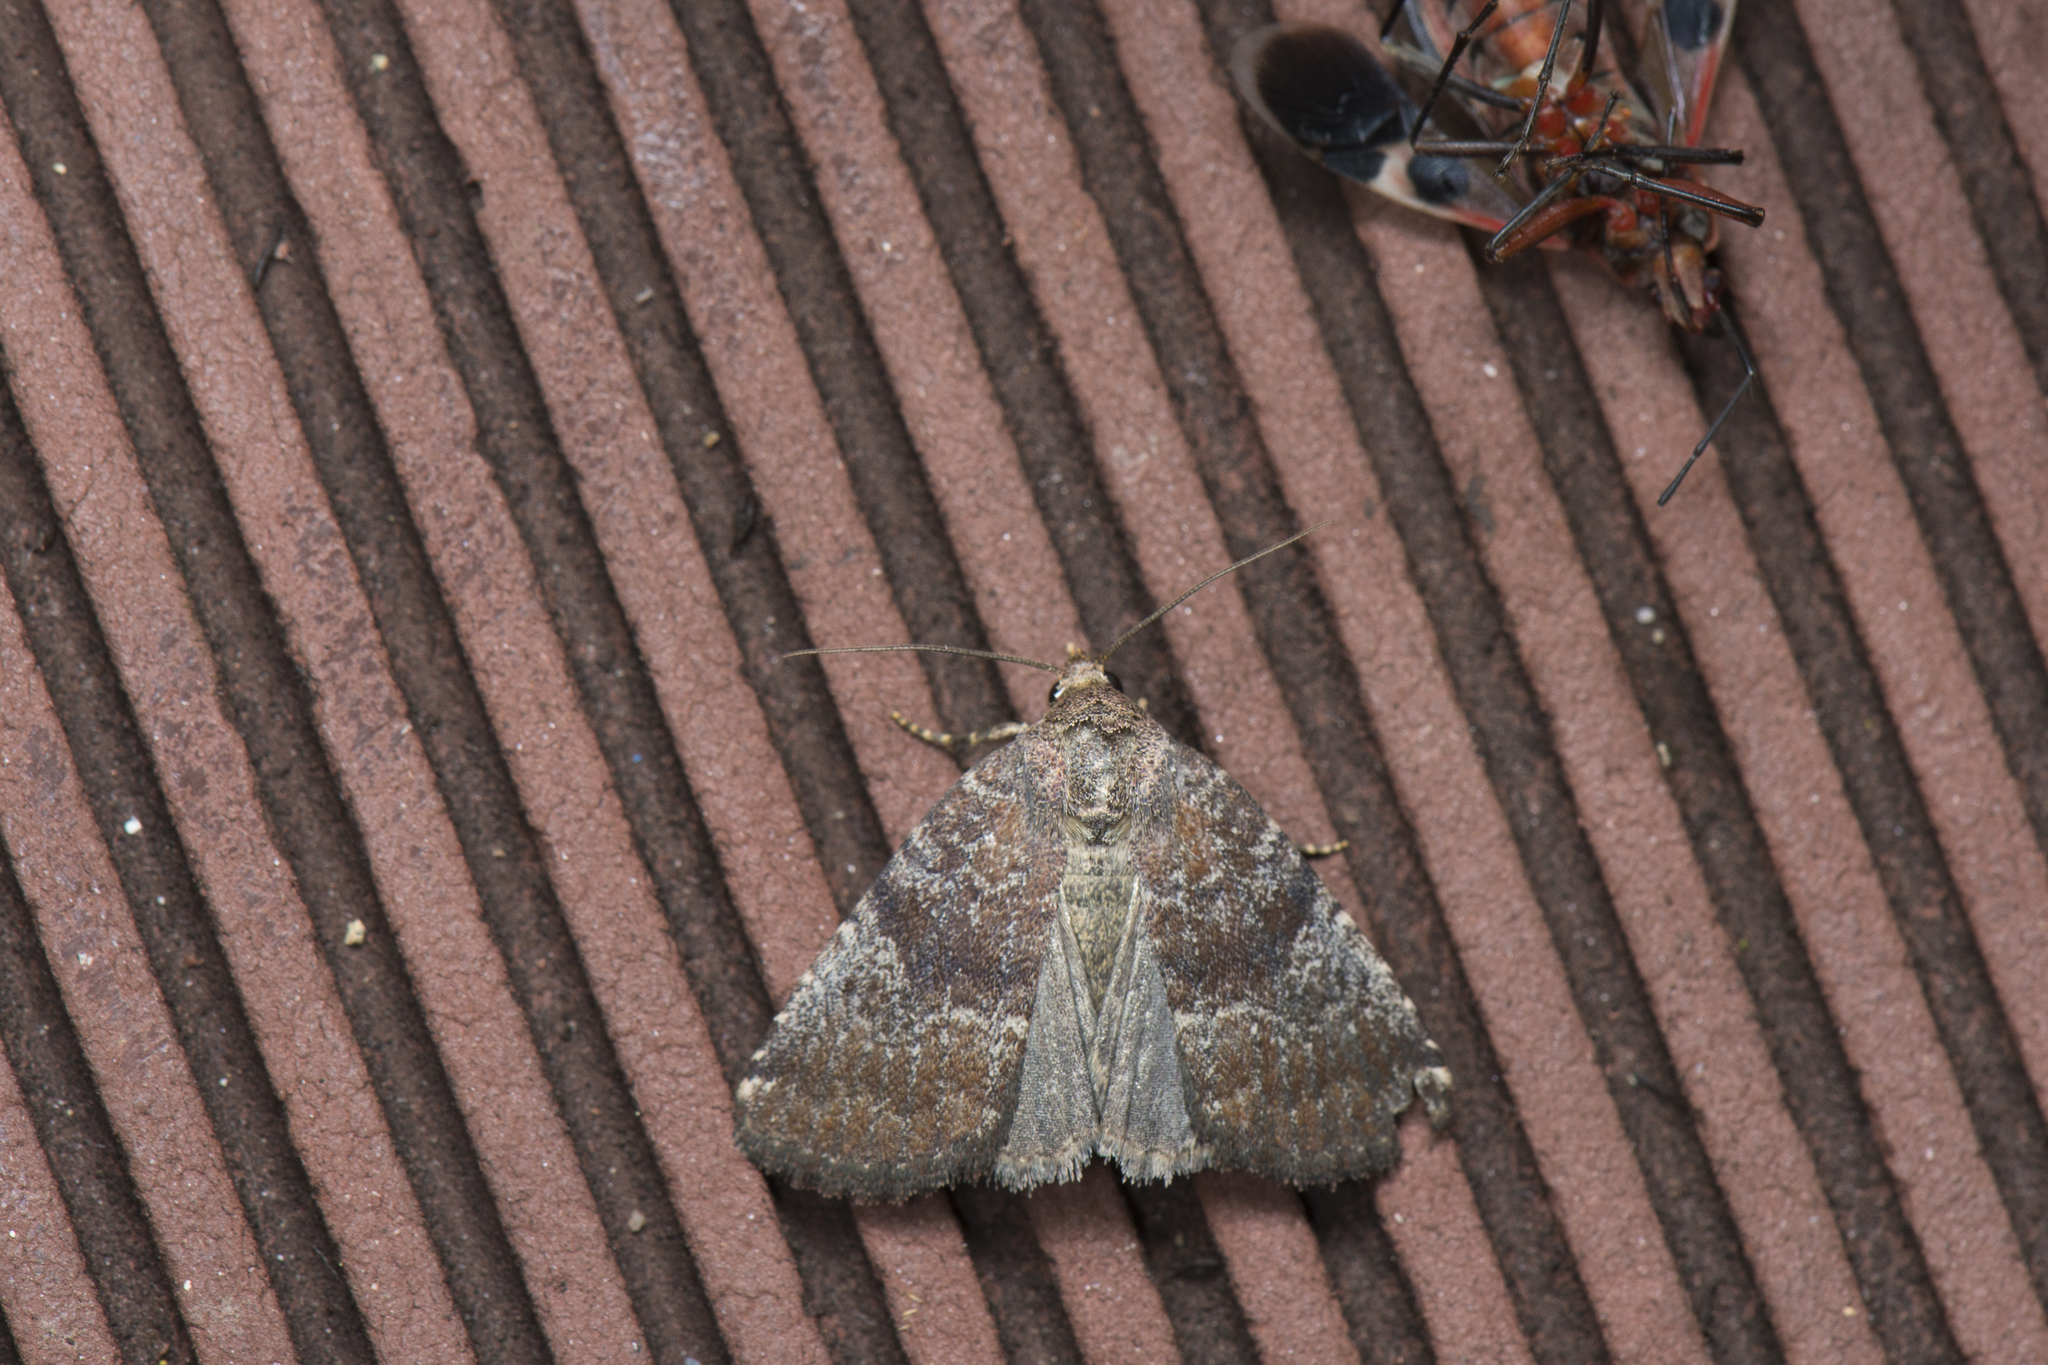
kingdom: Animalia
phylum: Arthropoda
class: Insecta
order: Lepidoptera
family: Noctuidae
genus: Acosmetia
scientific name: Acosmetia chinensis
